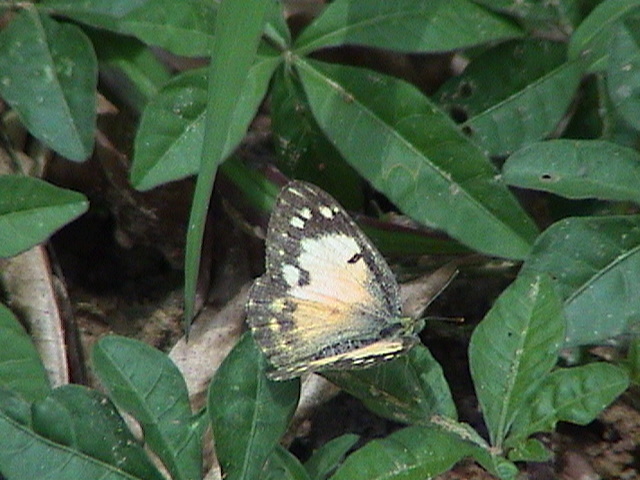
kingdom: Animalia
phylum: Arthropoda
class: Insecta
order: Lepidoptera
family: Pieridae
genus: Colotis
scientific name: Colotis amata
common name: Small salmon arab
